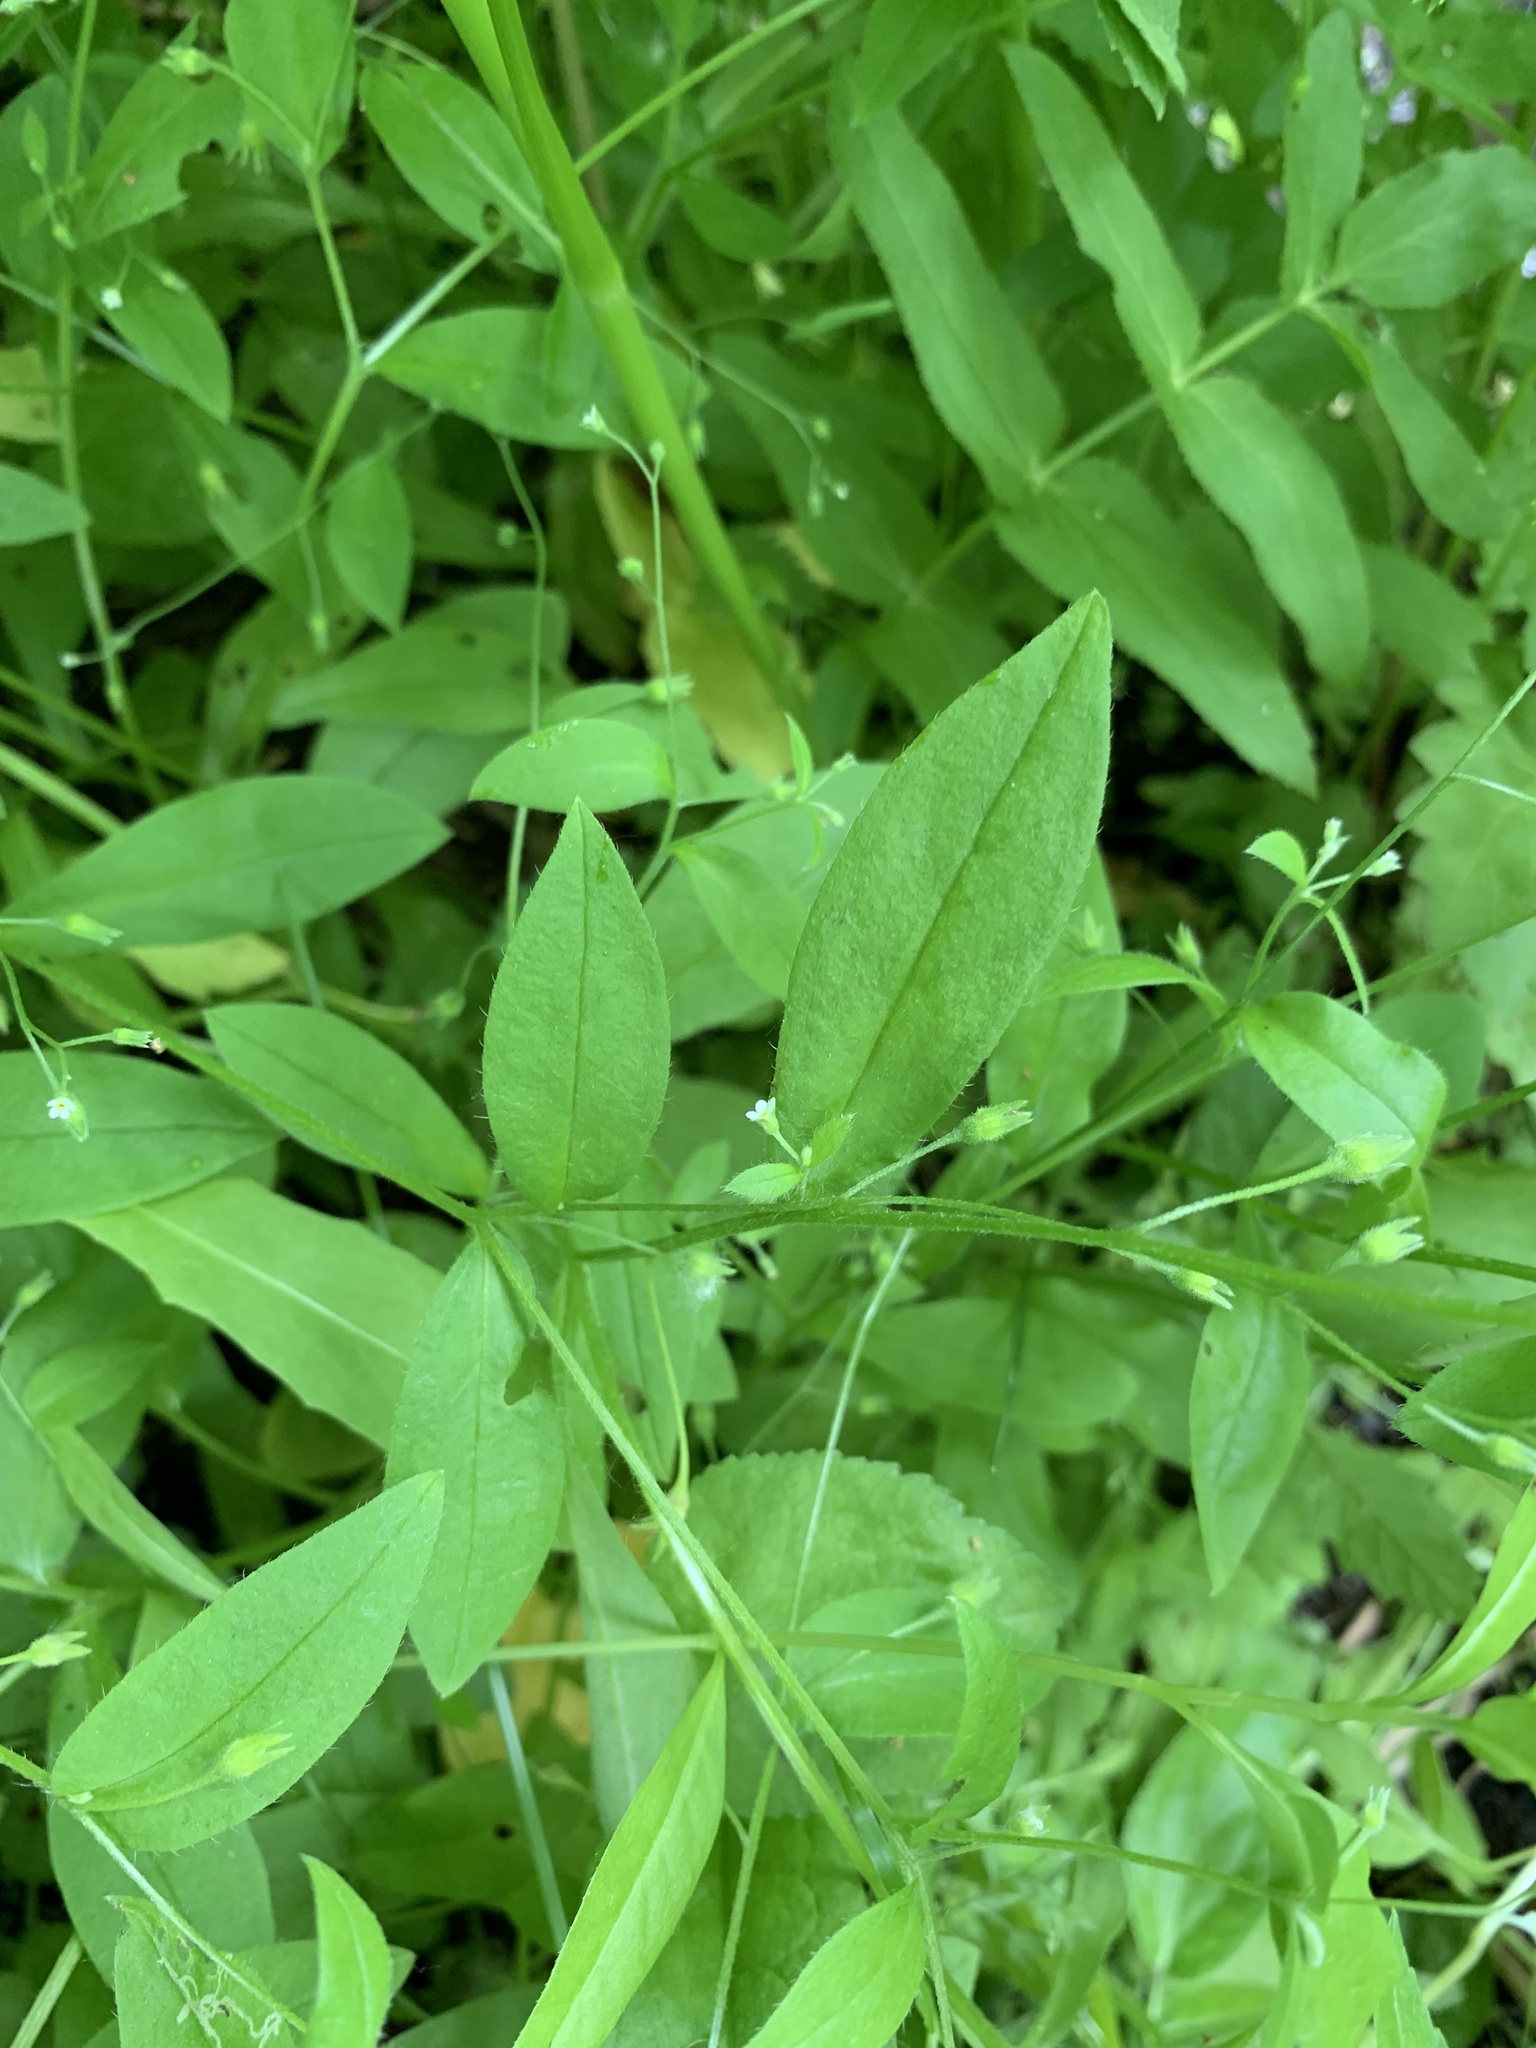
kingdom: Plantae
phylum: Tracheophyta
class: Magnoliopsida
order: Boraginales
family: Boraginaceae
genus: Myosotis
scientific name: Myosotis sparsiflora
